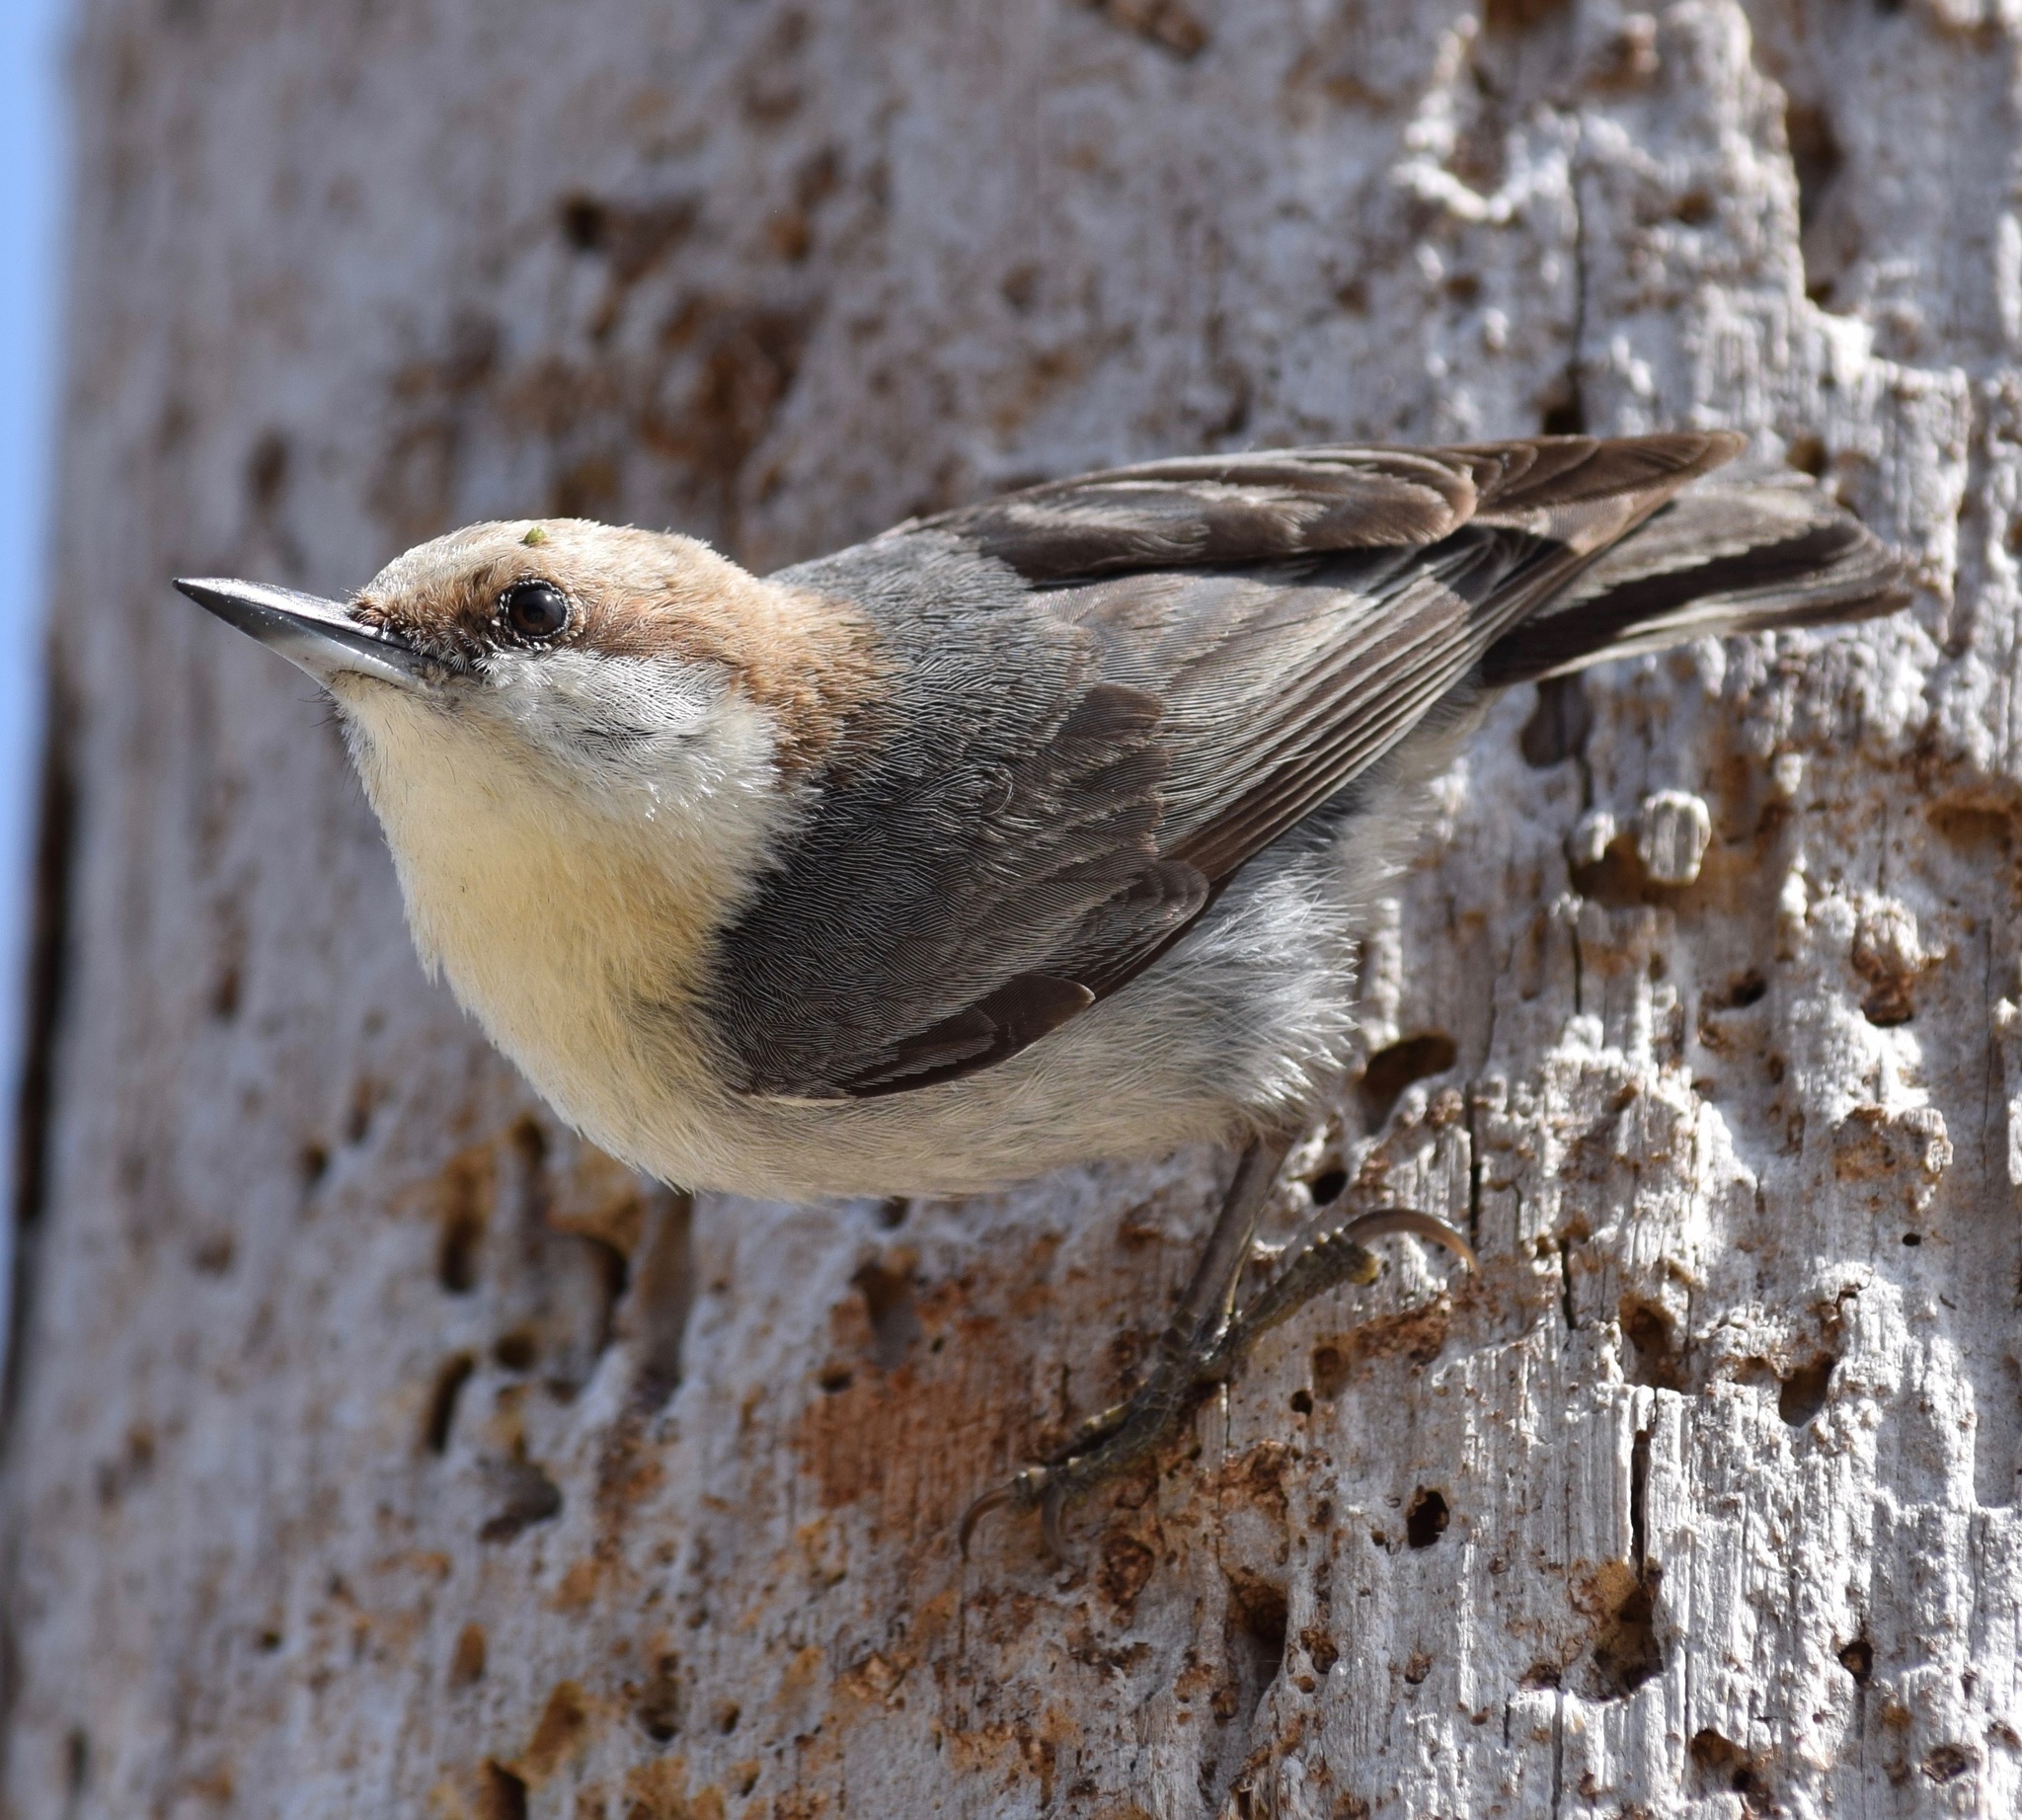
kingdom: Animalia
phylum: Chordata
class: Aves
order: Passeriformes
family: Sittidae
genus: Sitta
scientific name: Sitta pusilla
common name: Brown-headed nuthatch
